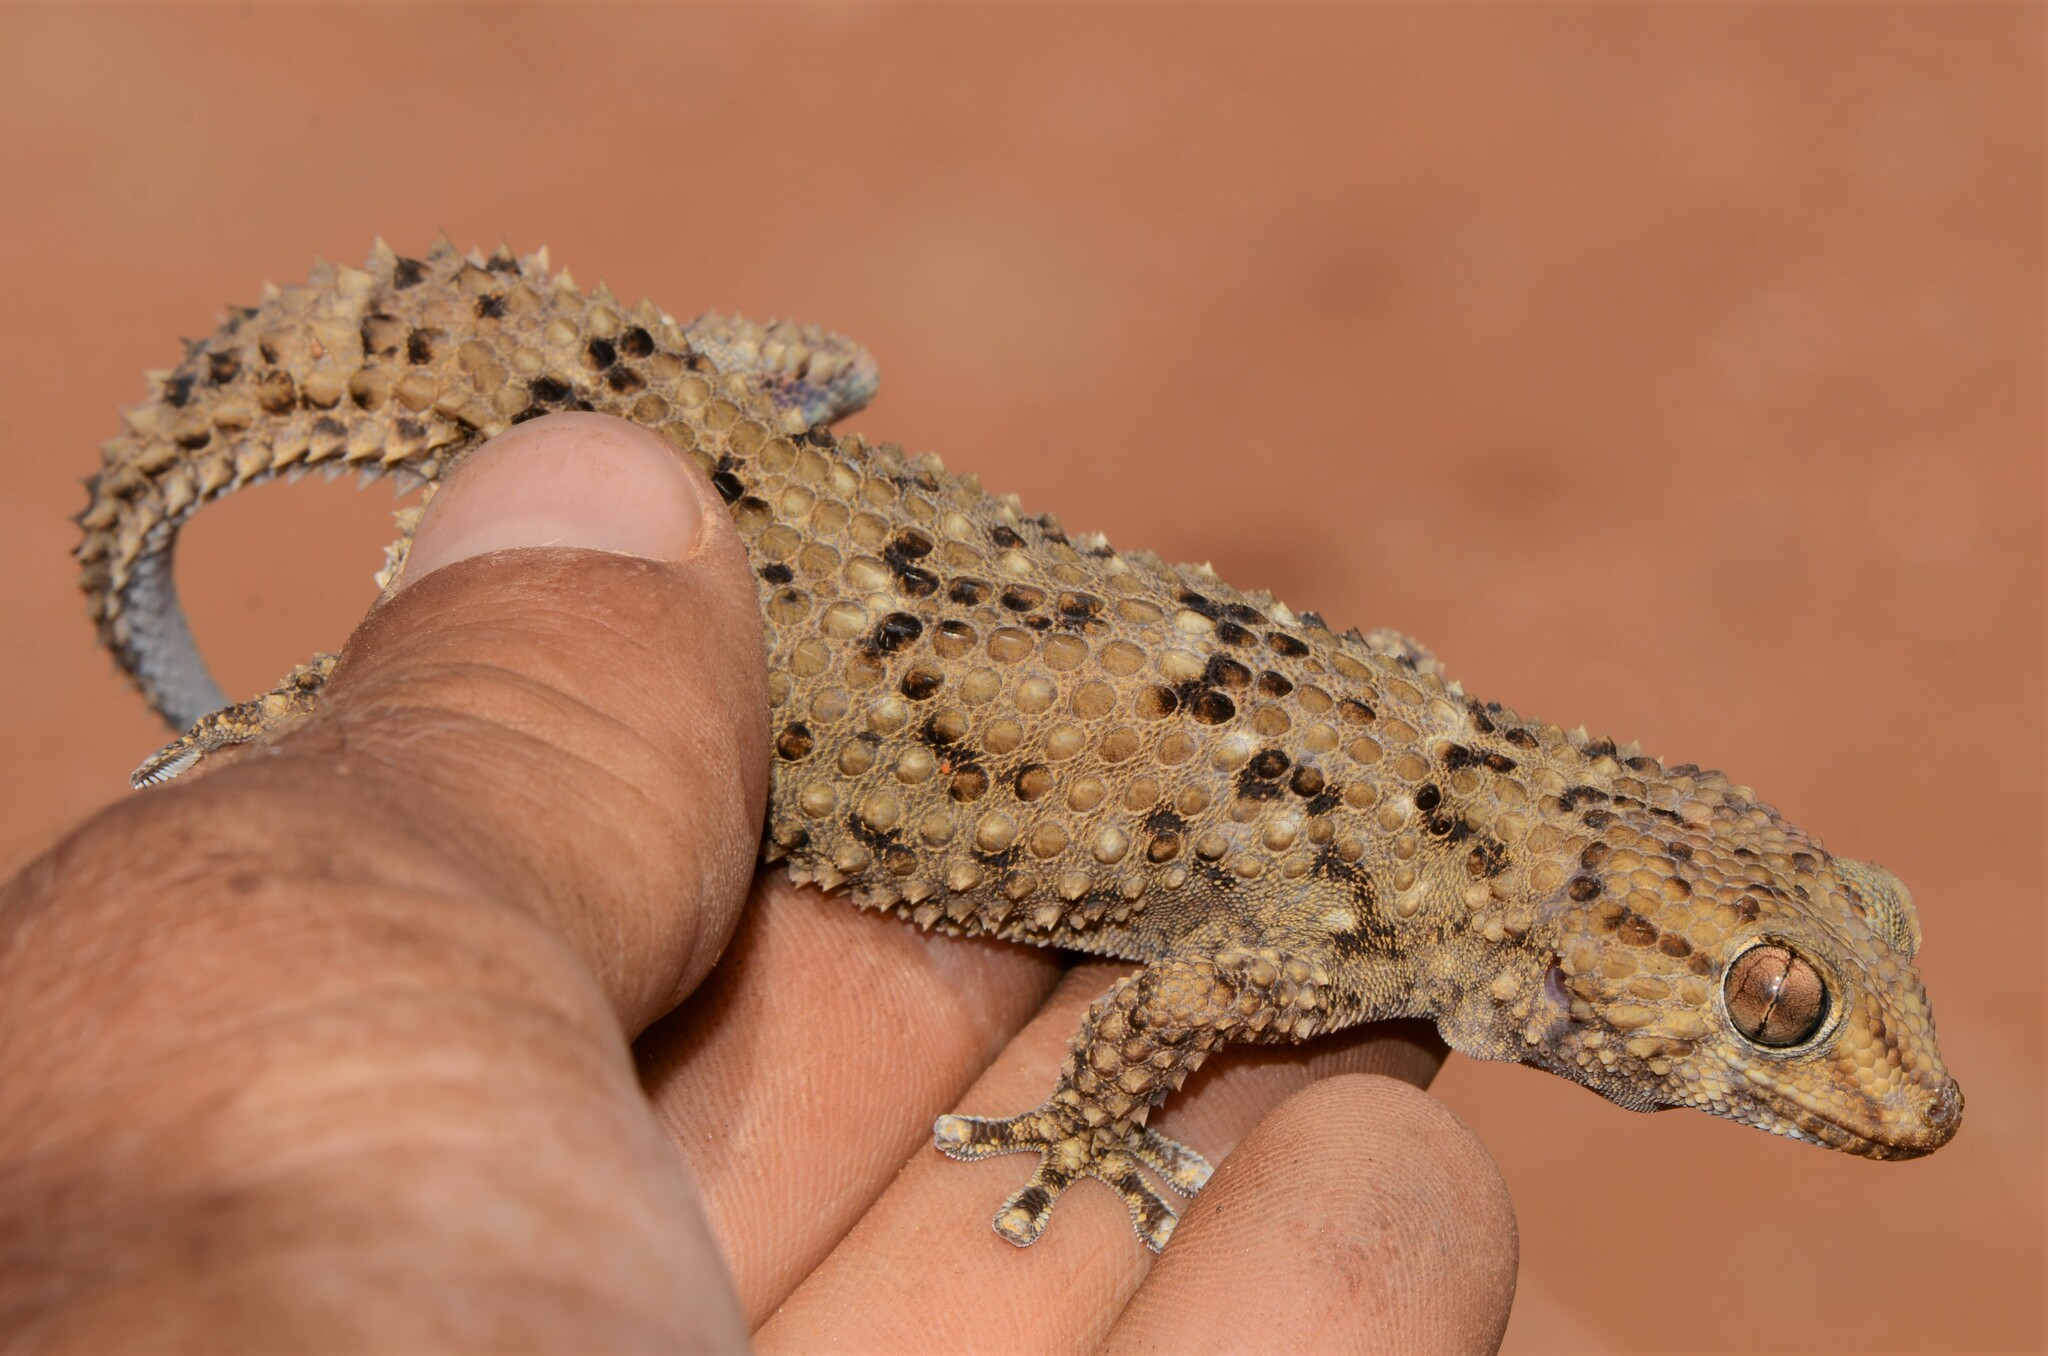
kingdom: Animalia
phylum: Chordata
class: Squamata
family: Gekkonidae
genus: Chondrodactylus
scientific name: Chondrodactylus bibronii
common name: Bibron's gecko
